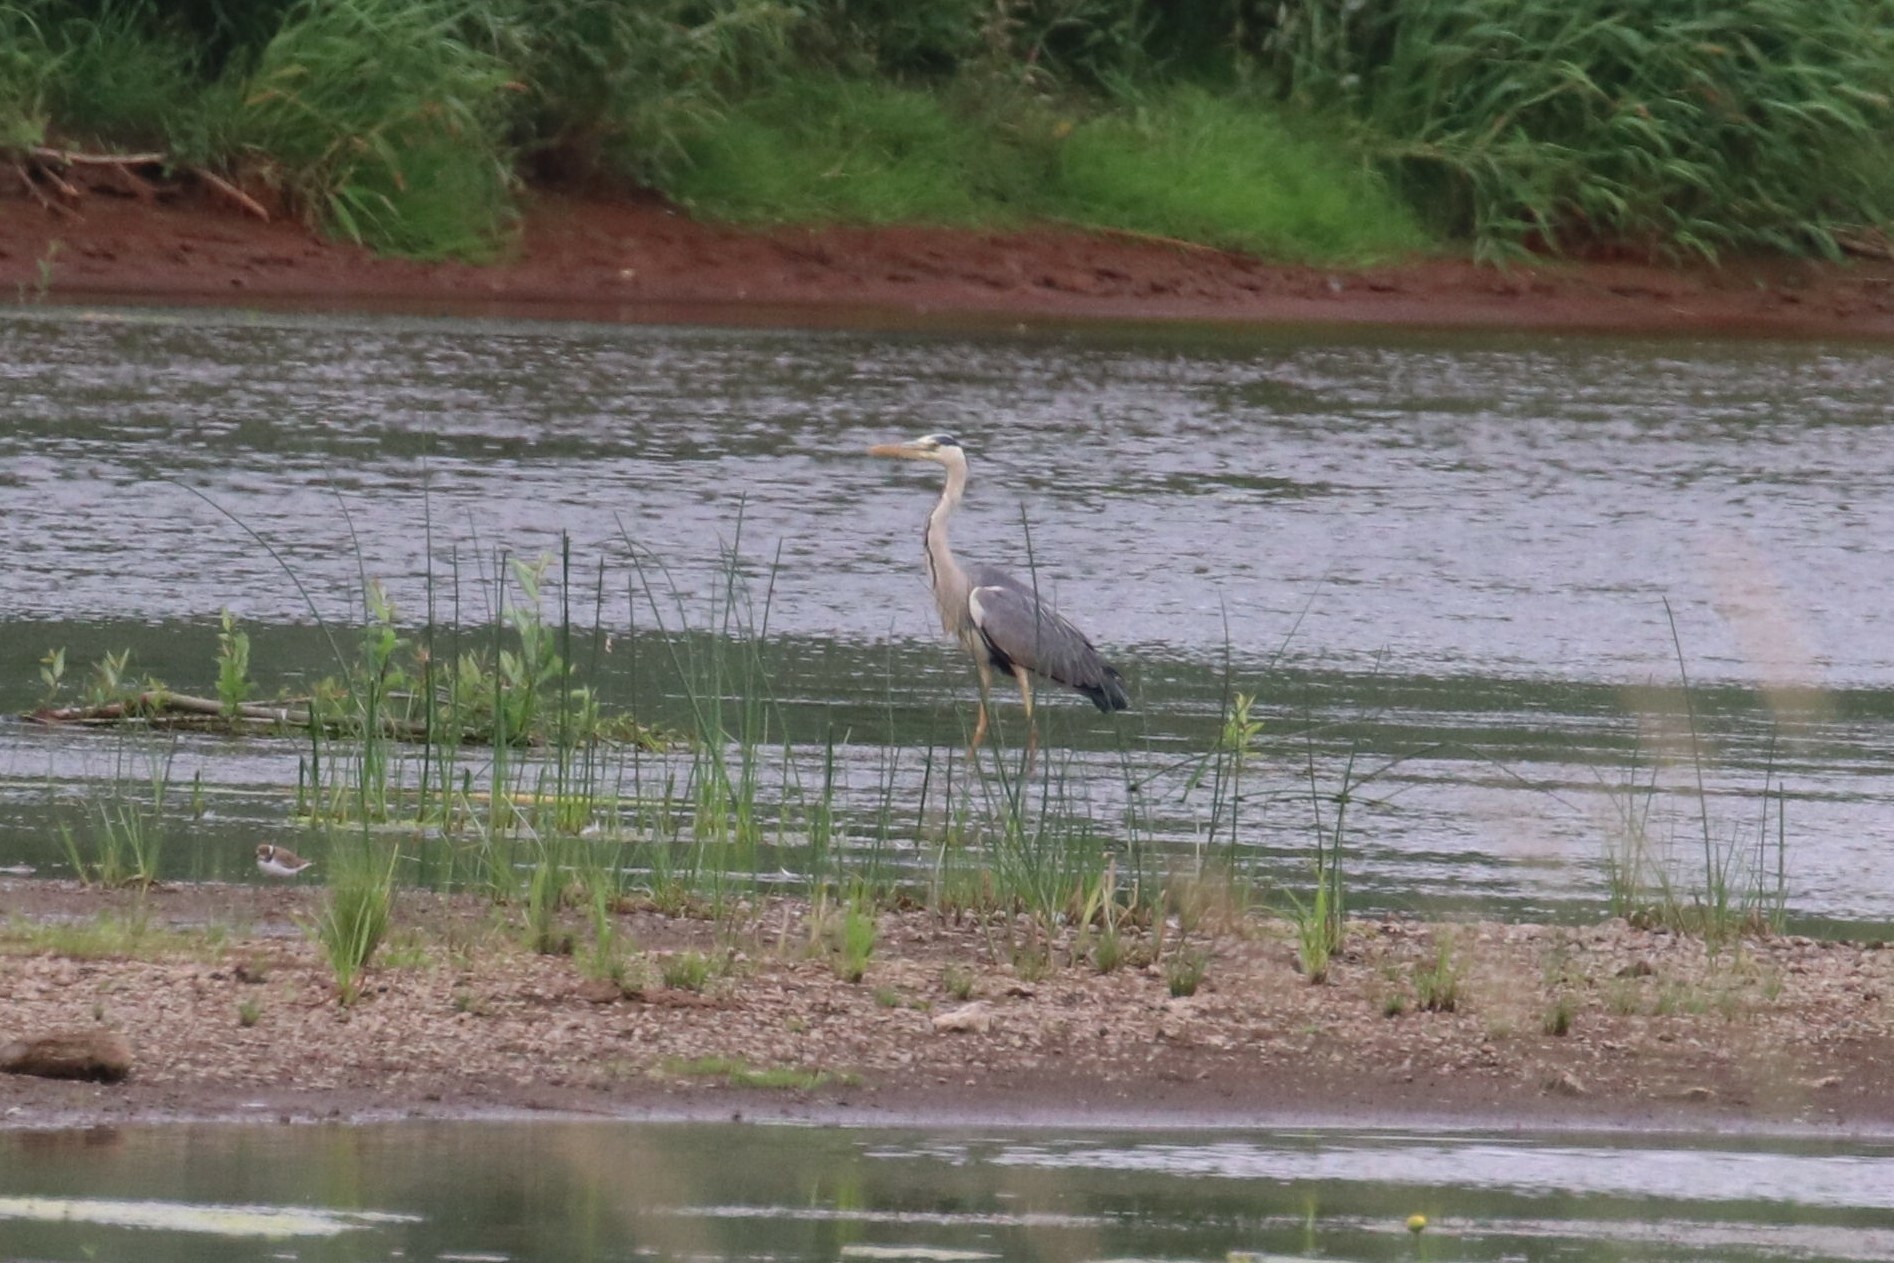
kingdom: Animalia
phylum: Chordata
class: Aves
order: Pelecaniformes
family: Ardeidae
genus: Ardea
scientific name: Ardea cinerea
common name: Grey heron
